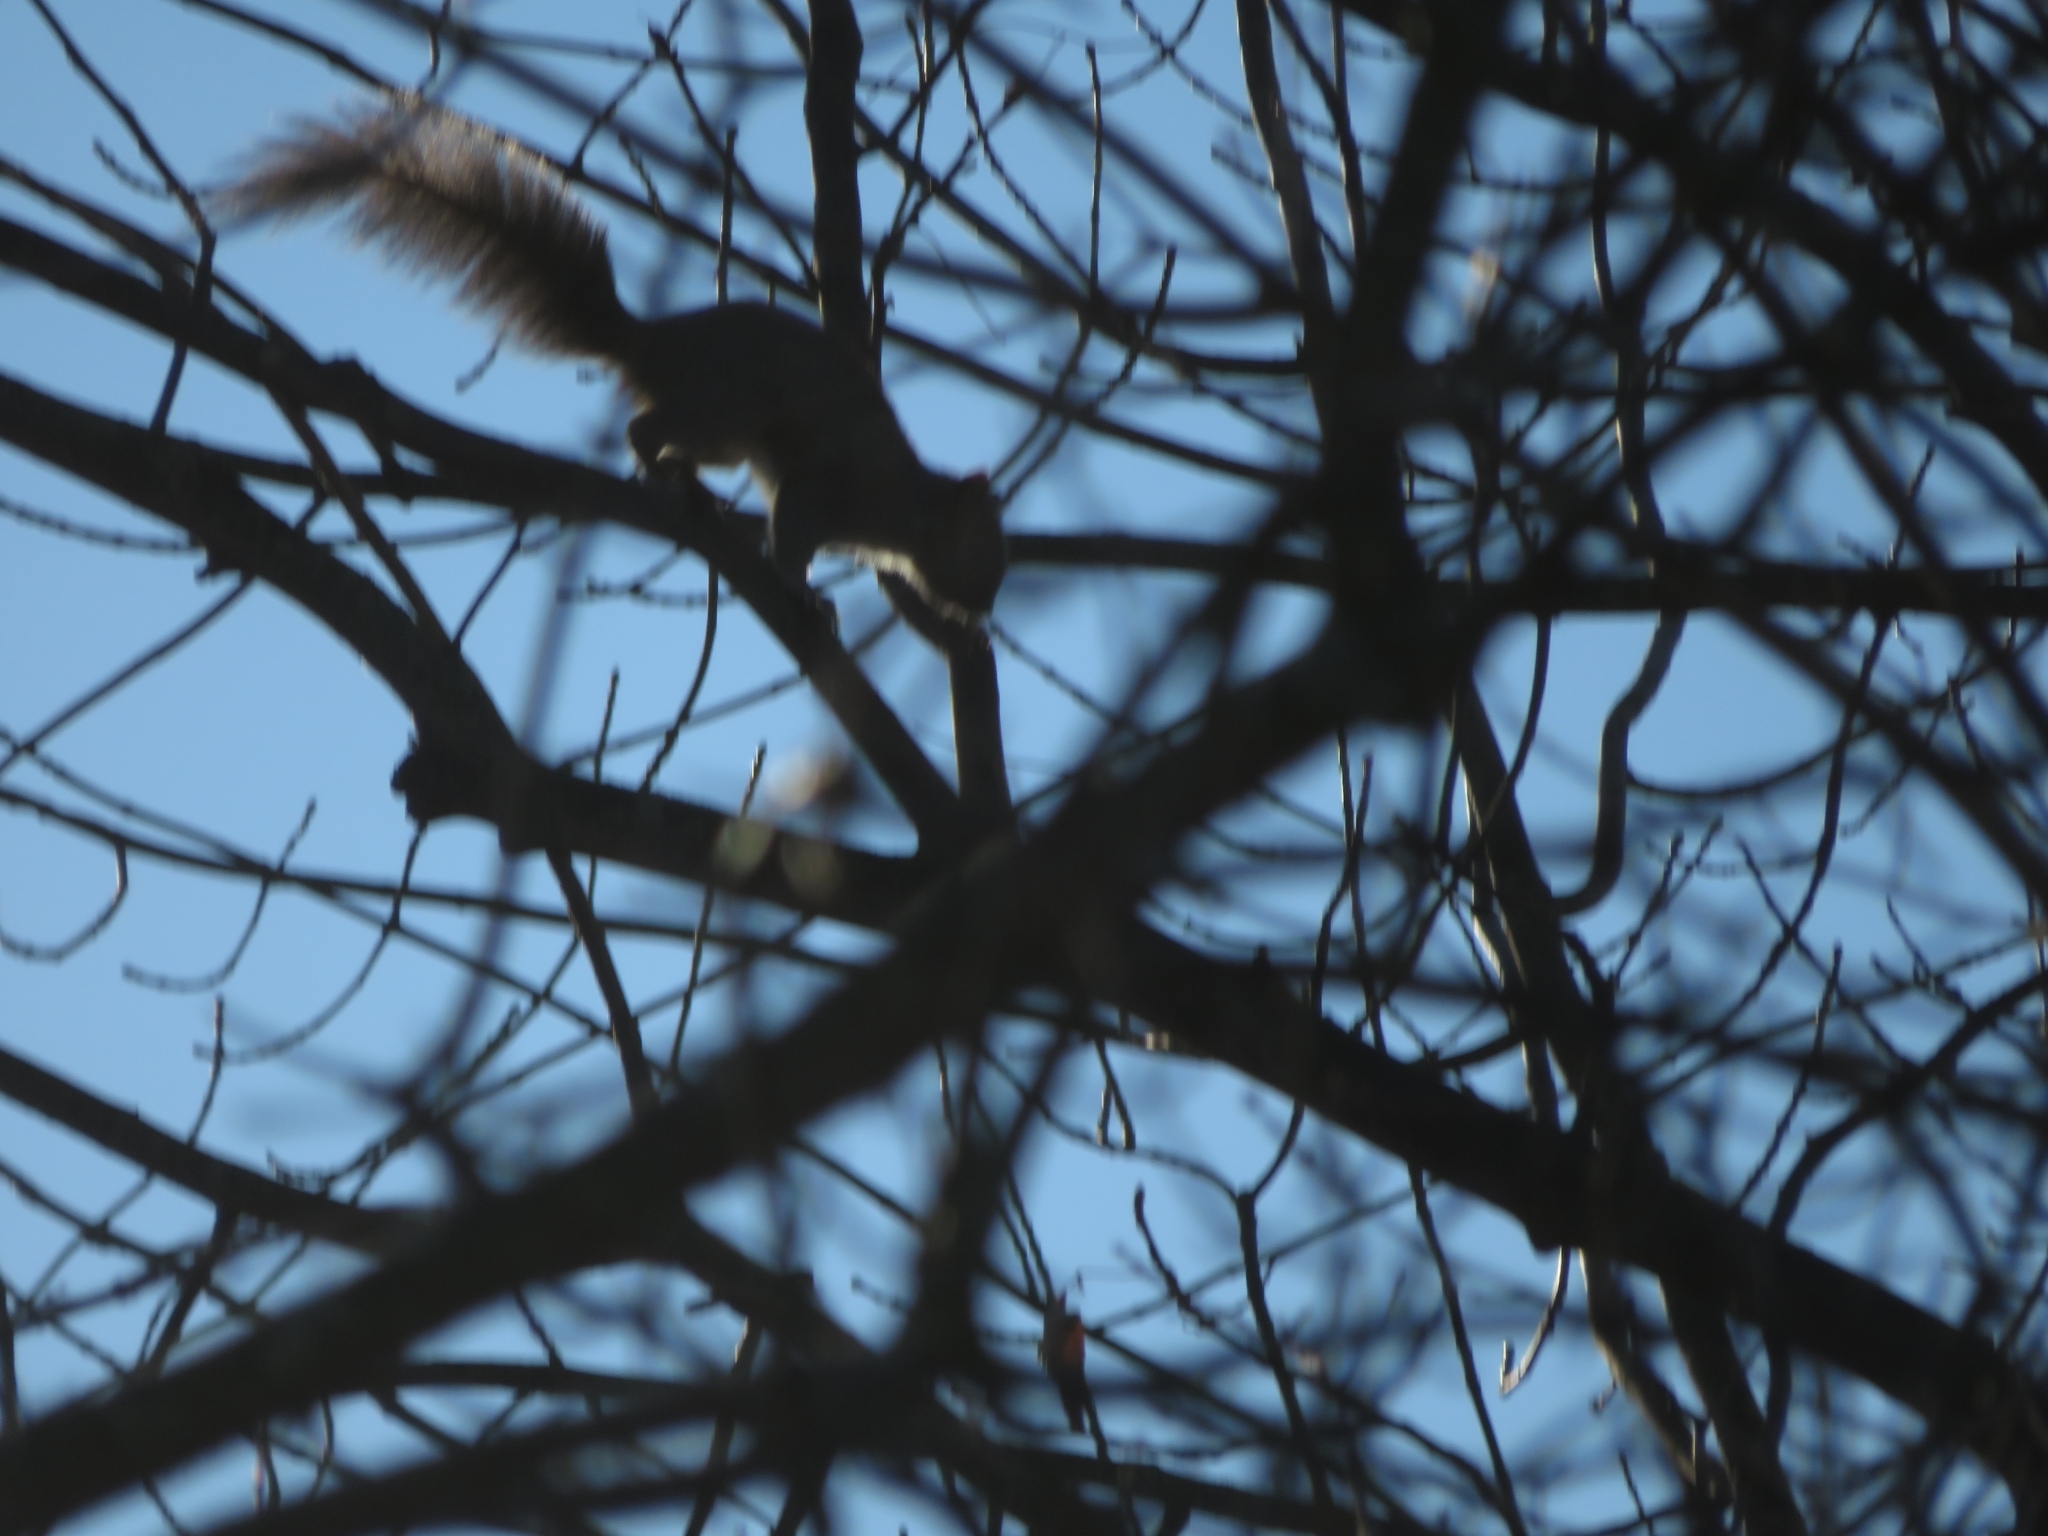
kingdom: Animalia
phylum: Chordata
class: Mammalia
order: Rodentia
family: Sciuridae
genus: Sciurus
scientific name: Sciurus carolinensis
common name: Eastern gray squirrel
